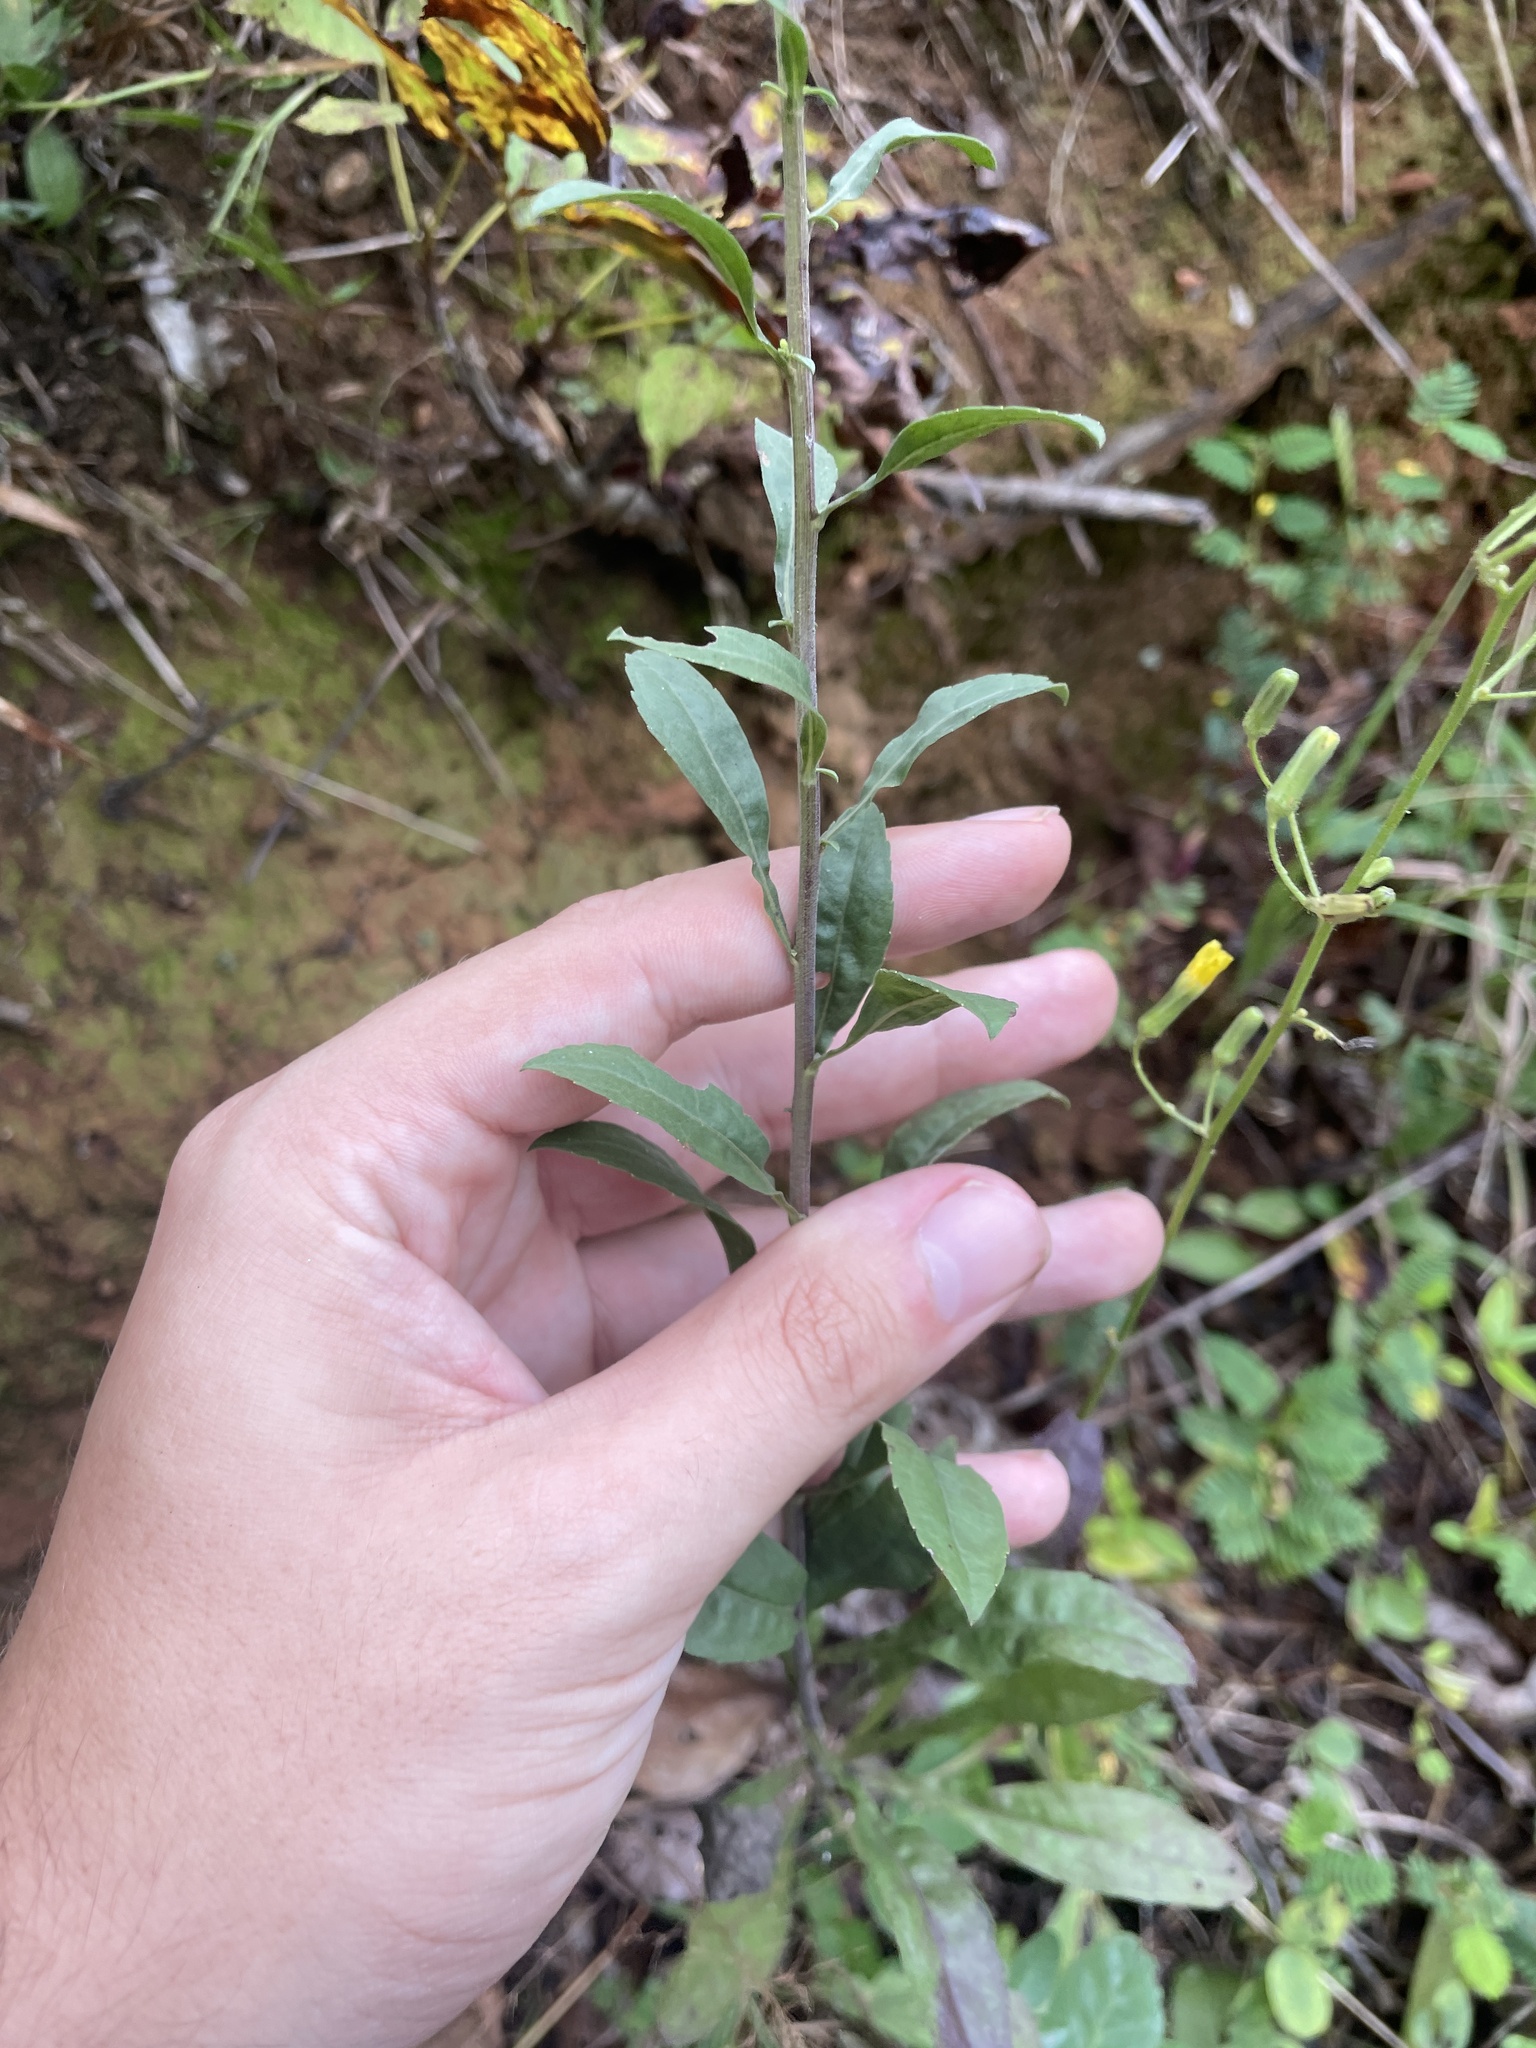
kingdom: Plantae
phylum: Tracheophyta
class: Magnoliopsida
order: Asterales
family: Asteraceae
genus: Solidago
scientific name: Solidago nemoralis
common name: Grey goldenrod
